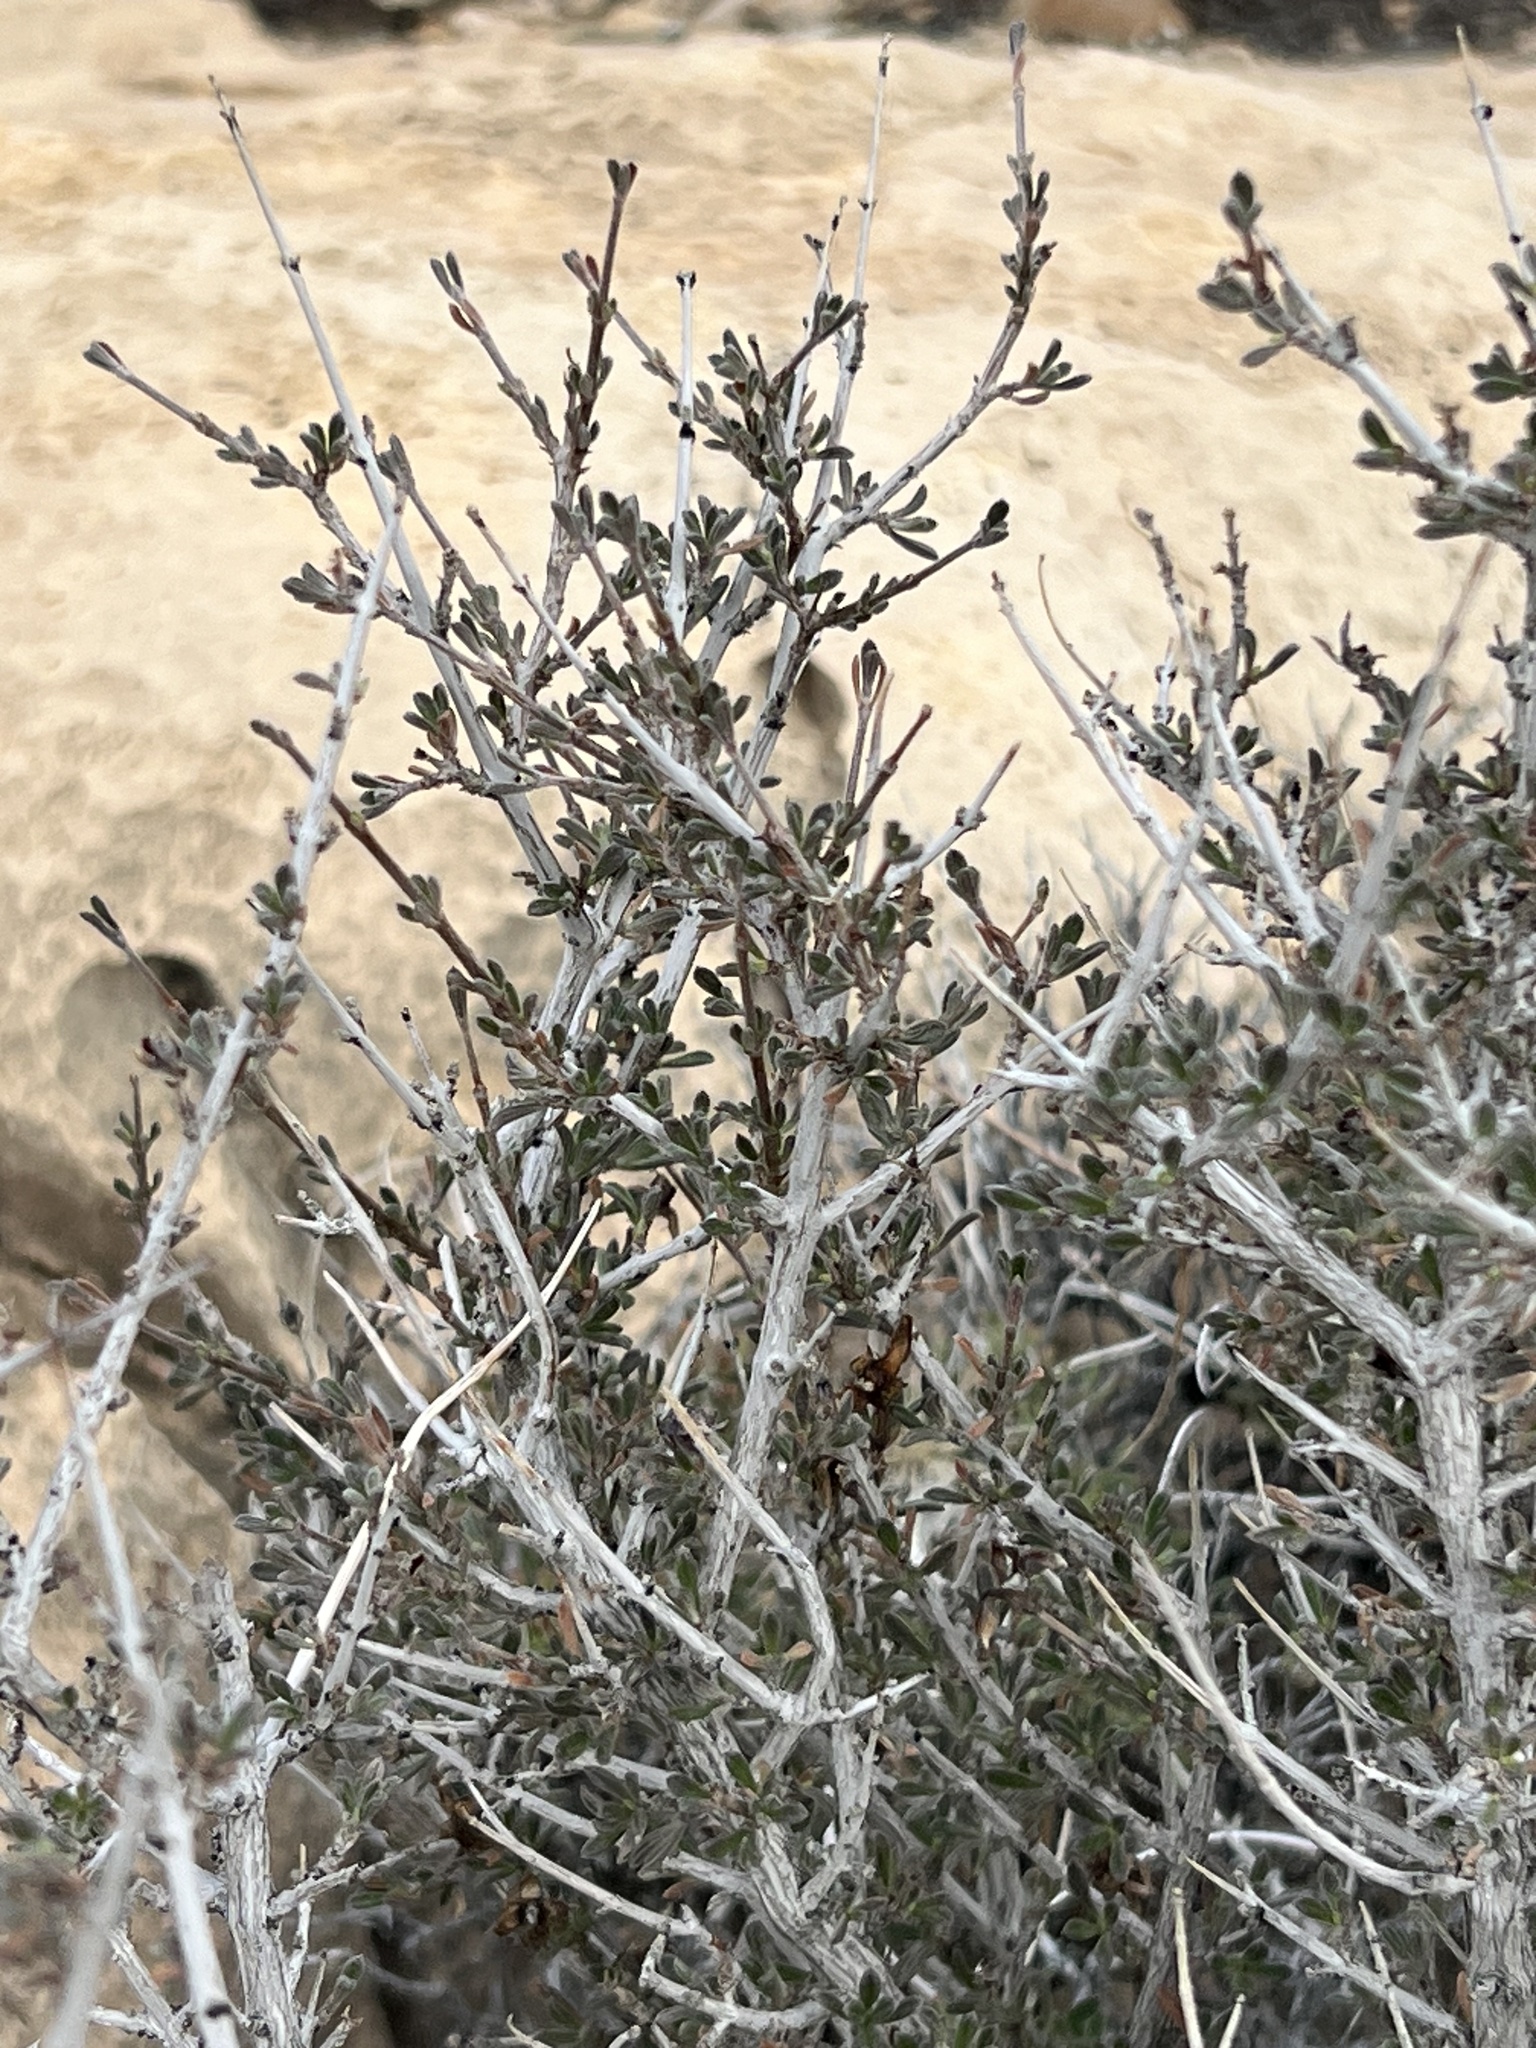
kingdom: Plantae
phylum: Tracheophyta
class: Magnoliopsida
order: Rosales
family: Rosaceae
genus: Coleogyne
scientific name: Coleogyne ramosissima
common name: Blackbrush
